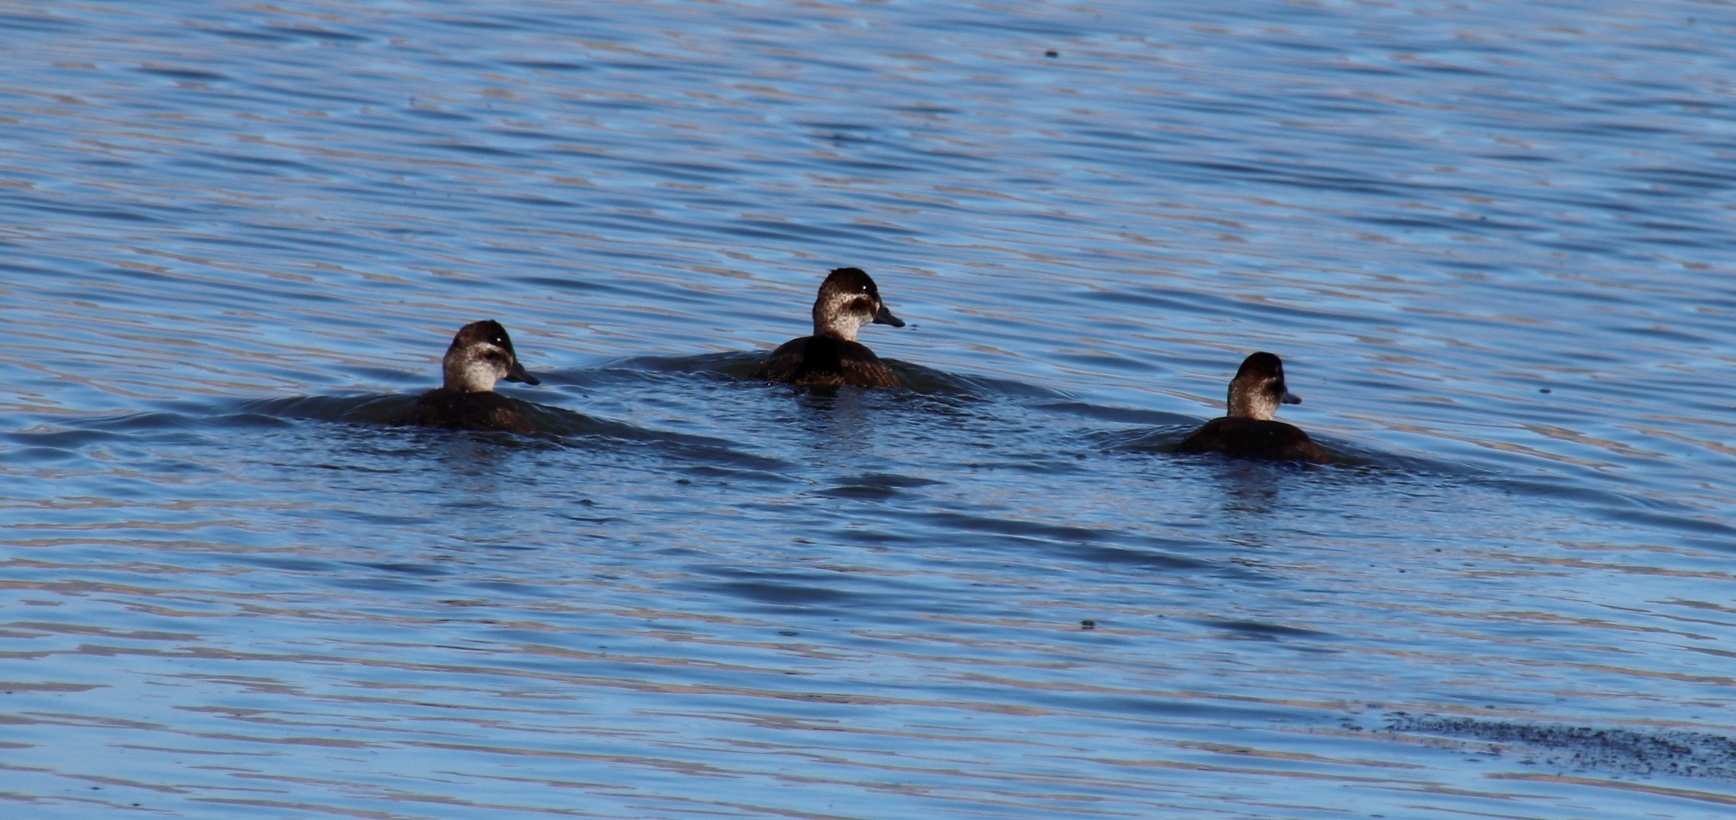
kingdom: Animalia
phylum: Chordata
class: Aves
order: Anseriformes
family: Anatidae
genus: Netta
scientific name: Netta erythrophthalma
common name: Southern pochard
